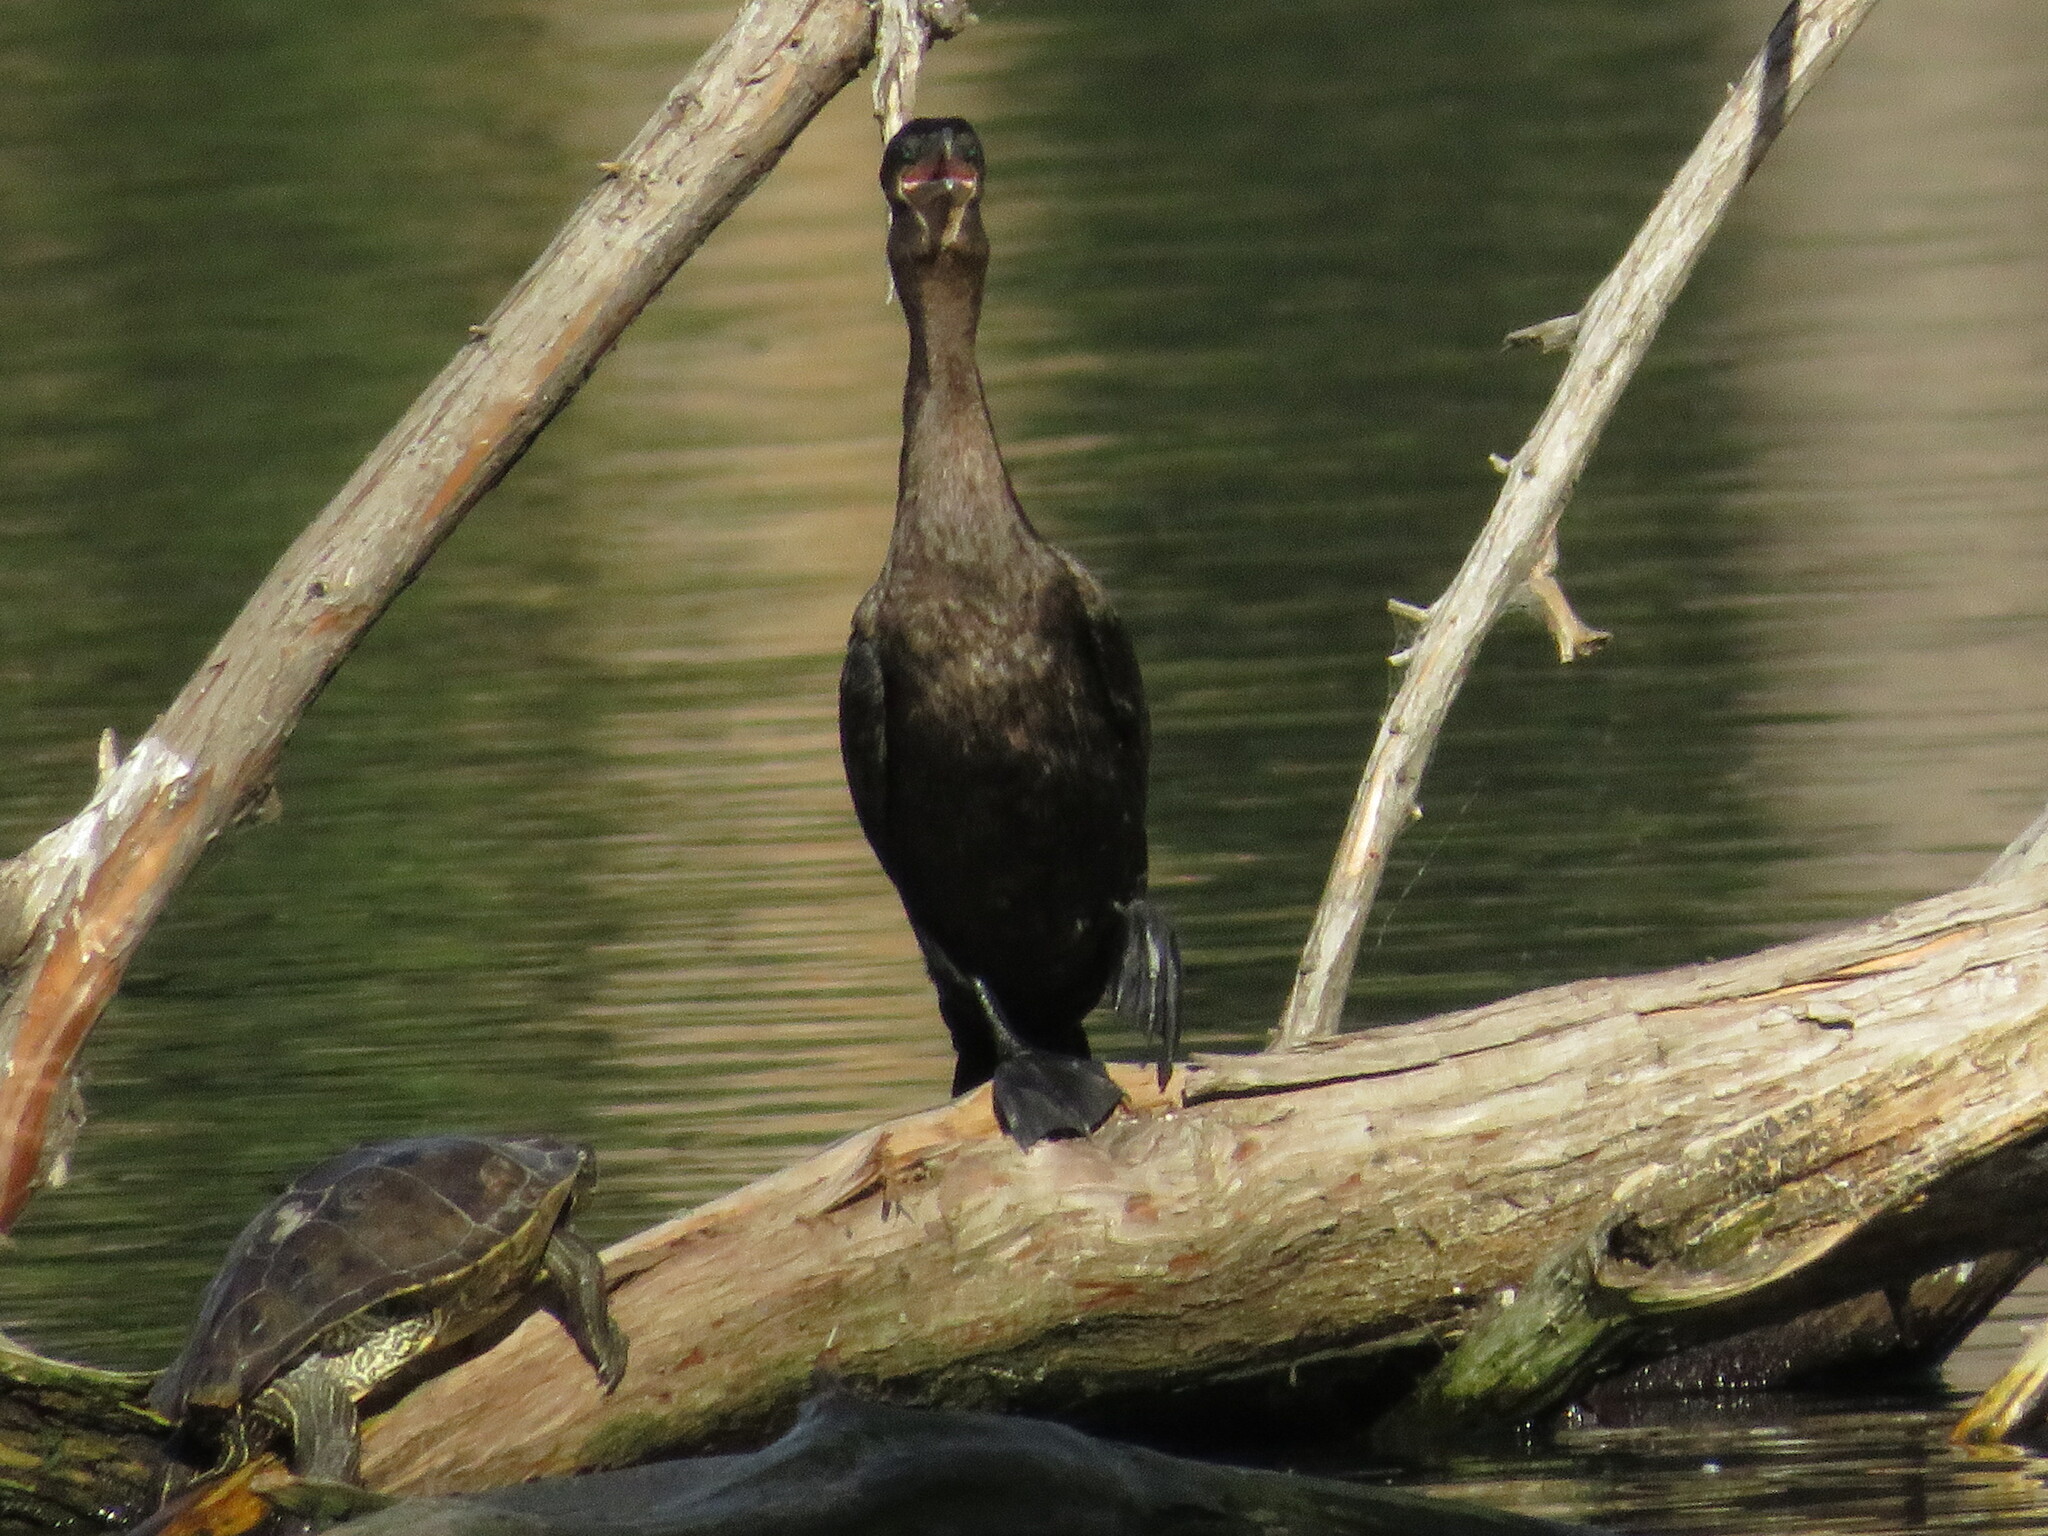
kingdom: Animalia
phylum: Chordata
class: Aves
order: Suliformes
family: Phalacrocoracidae
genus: Phalacrocorax
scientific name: Phalacrocorax brasilianus
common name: Neotropic cormorant
